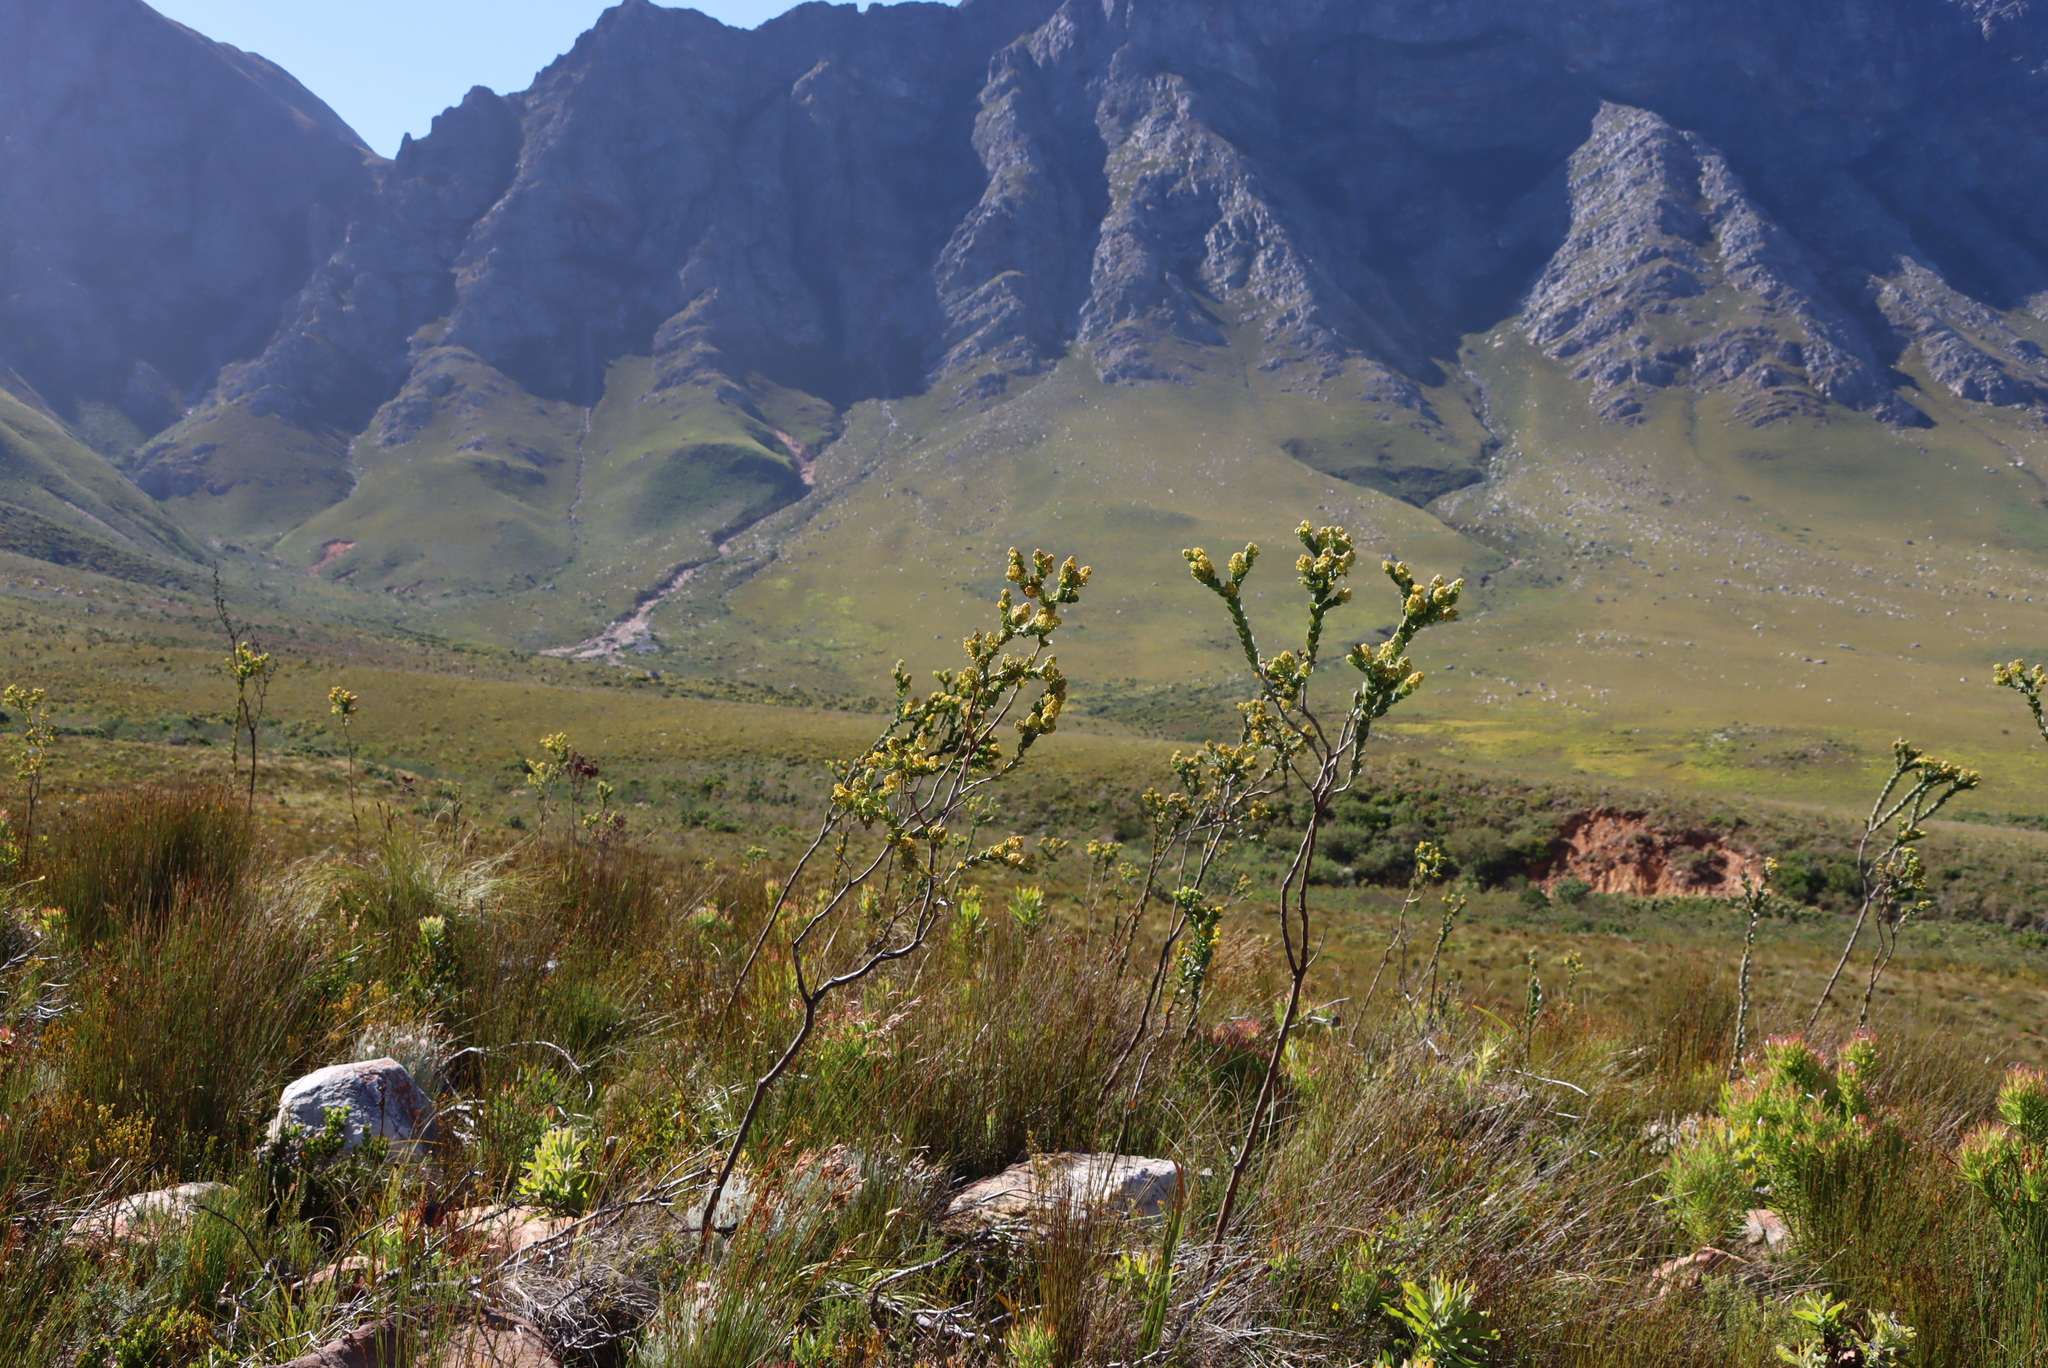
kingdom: Plantae
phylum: Tracheophyta
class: Magnoliopsida
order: Santalales
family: Thesiaceae
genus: Thesium
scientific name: Thesium euphorbioides
